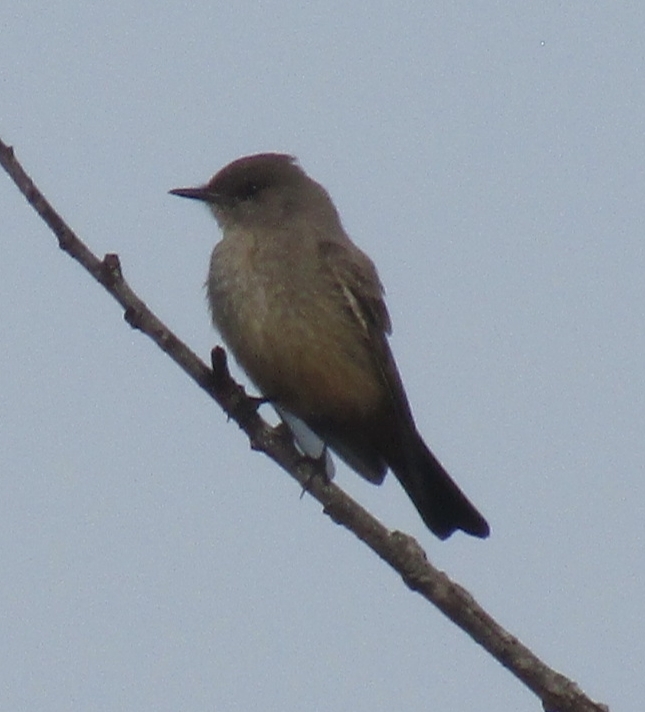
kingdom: Animalia
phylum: Chordata
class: Aves
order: Passeriformes
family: Tyrannidae
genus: Sayornis
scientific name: Sayornis saya
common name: Say's phoebe
